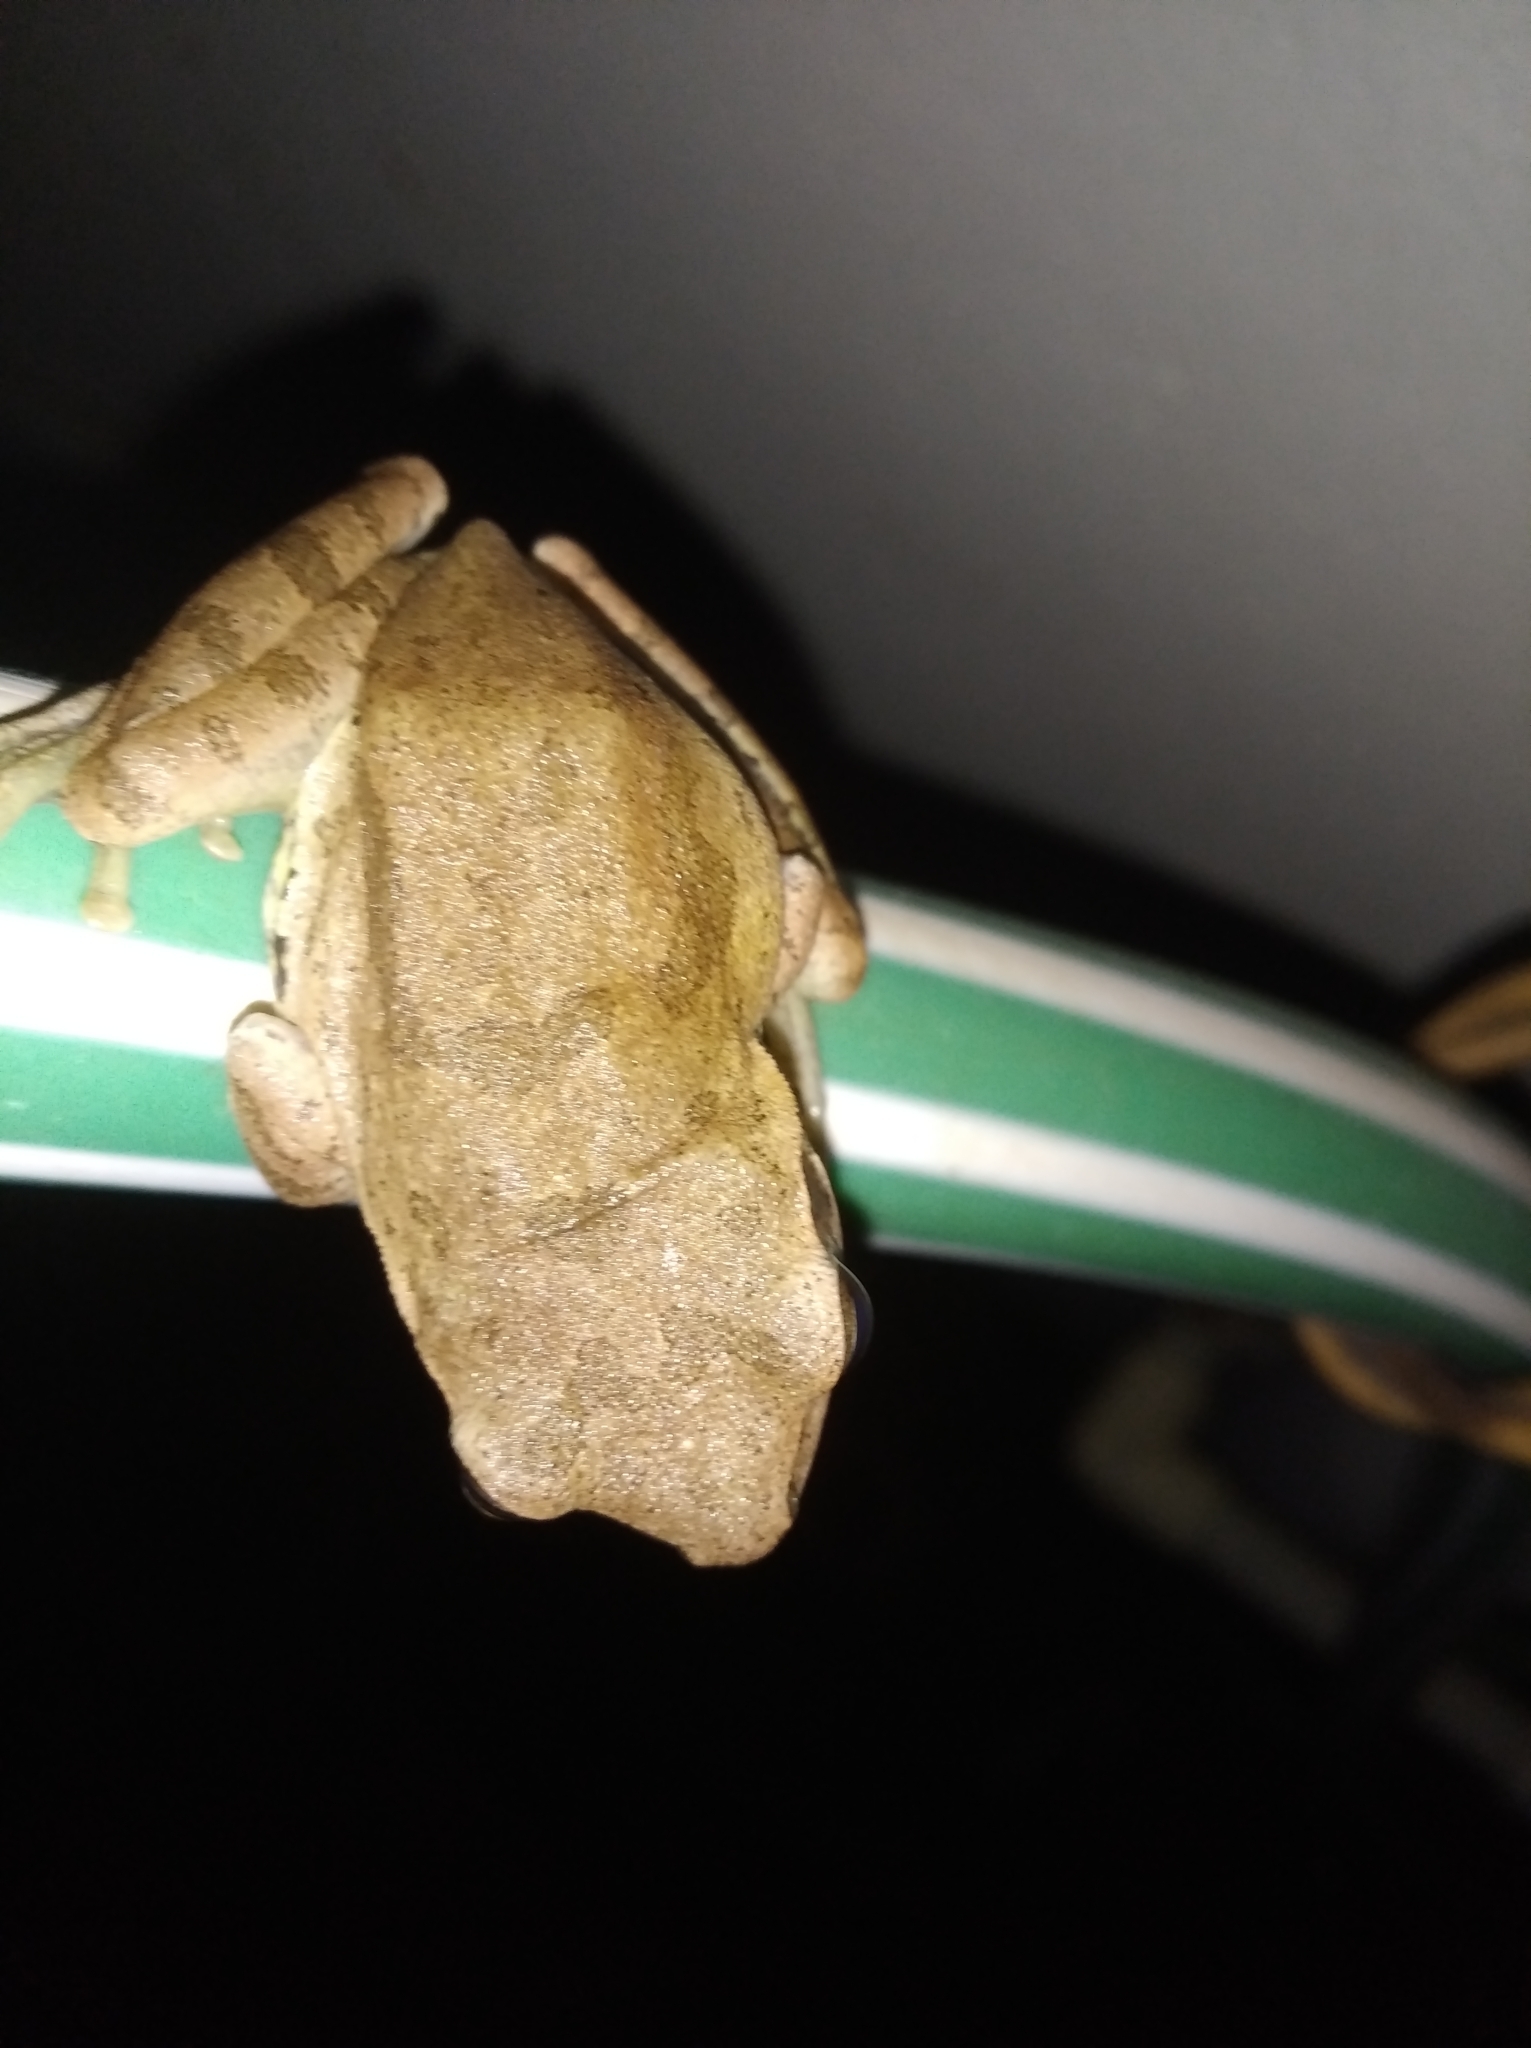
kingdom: Animalia
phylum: Chordata
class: Amphibia
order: Anura
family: Rhacophoridae
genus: Polypedates
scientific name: Polypedates maculatus
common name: Himalayan tree frog
